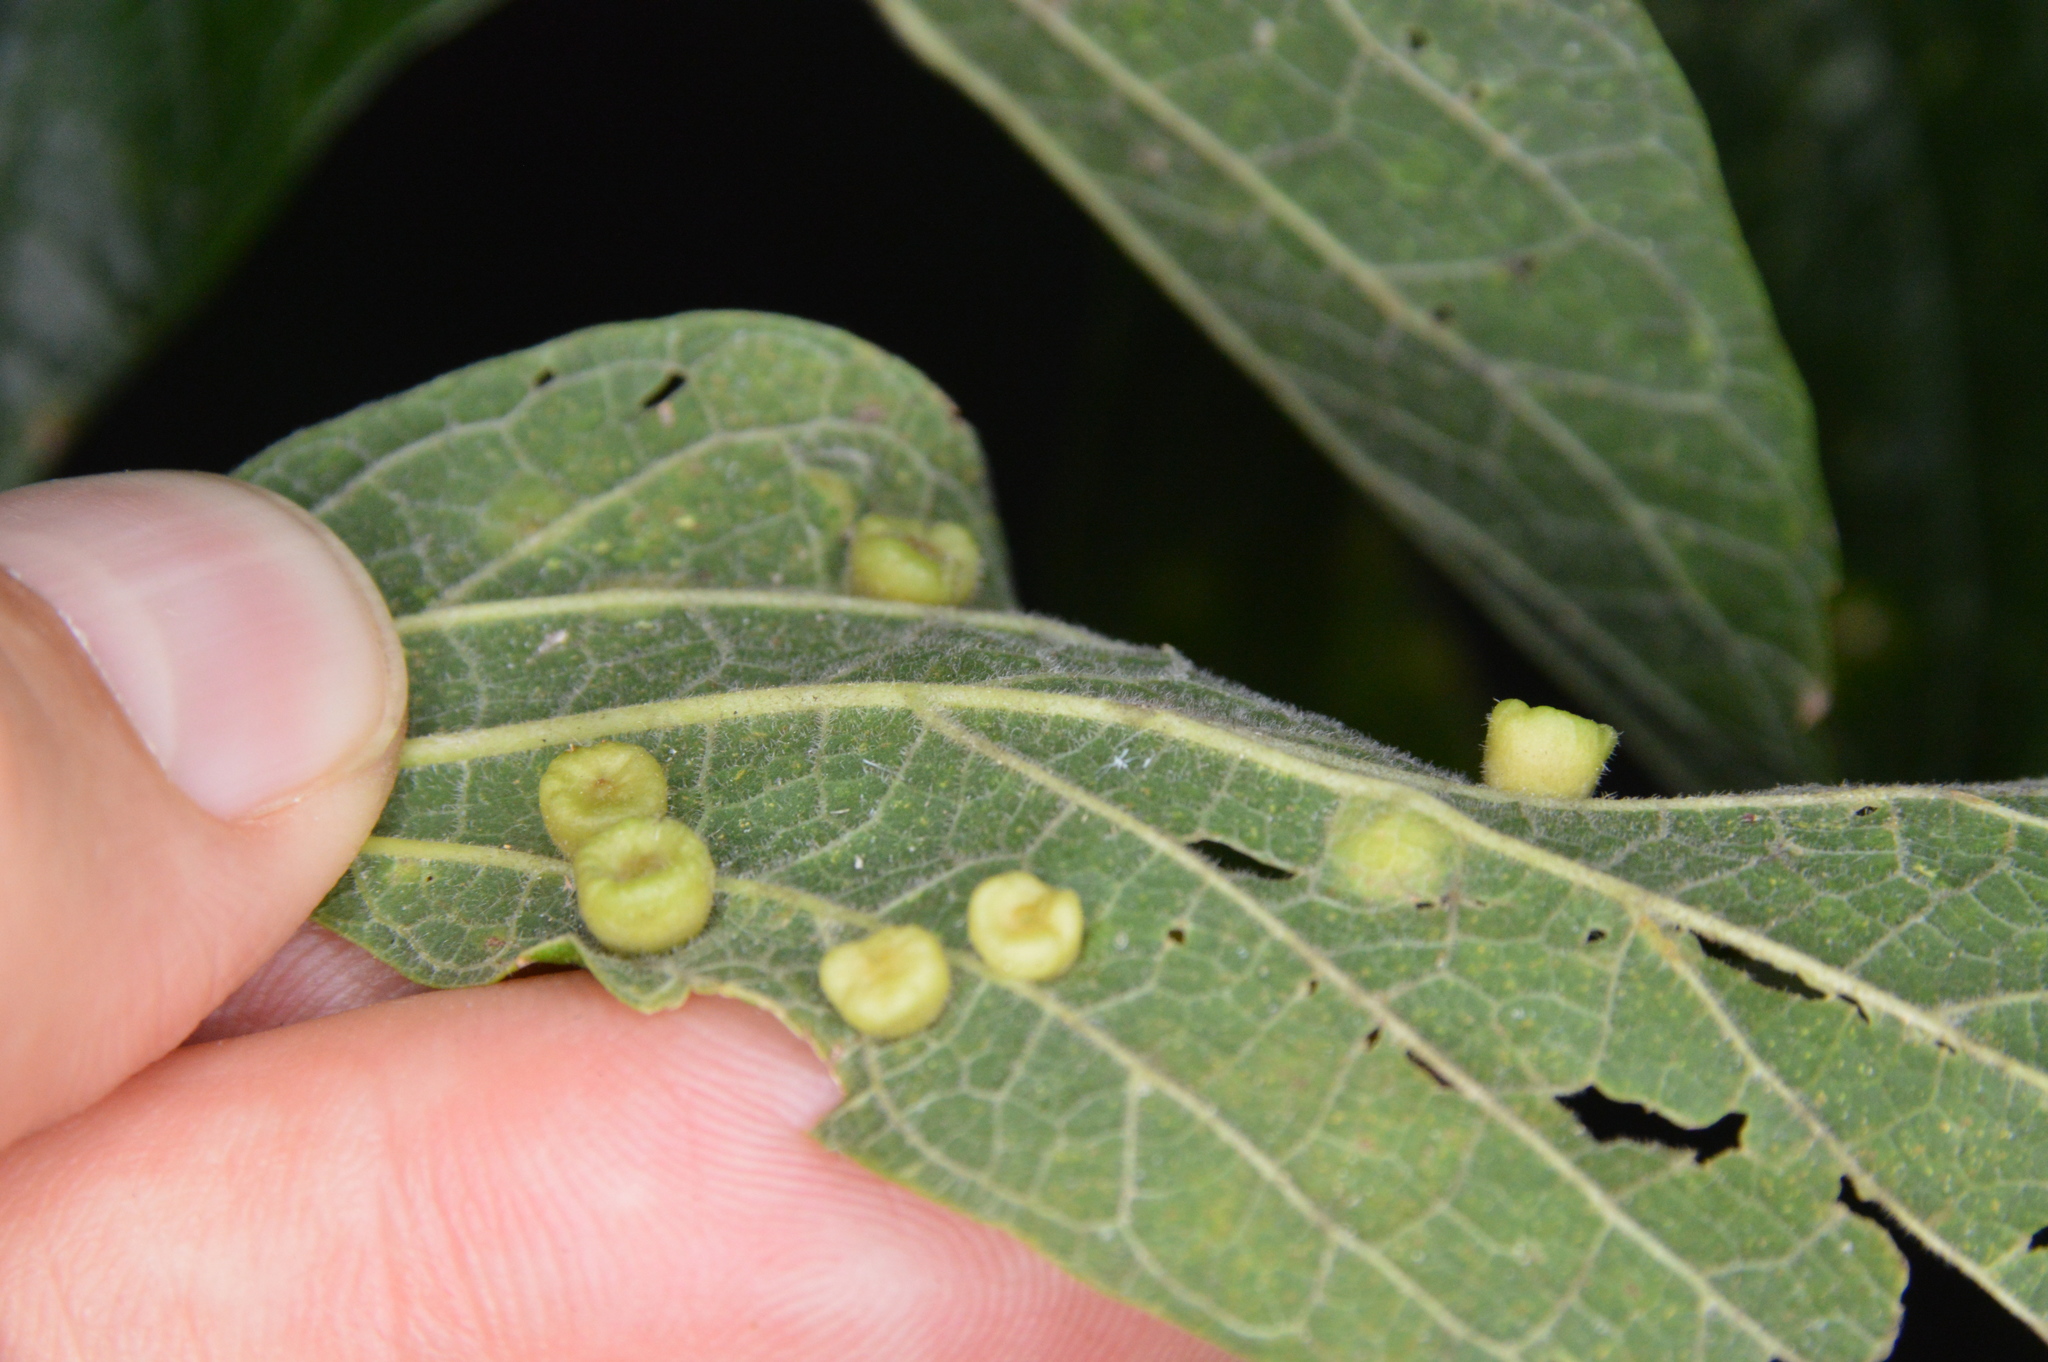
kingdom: Animalia
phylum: Arthropoda
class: Insecta
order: Hemiptera
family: Aphalaridae
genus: Pachypsylla
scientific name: Pachypsylla celtidismamma
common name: Hackberry nipplegall psyllid
